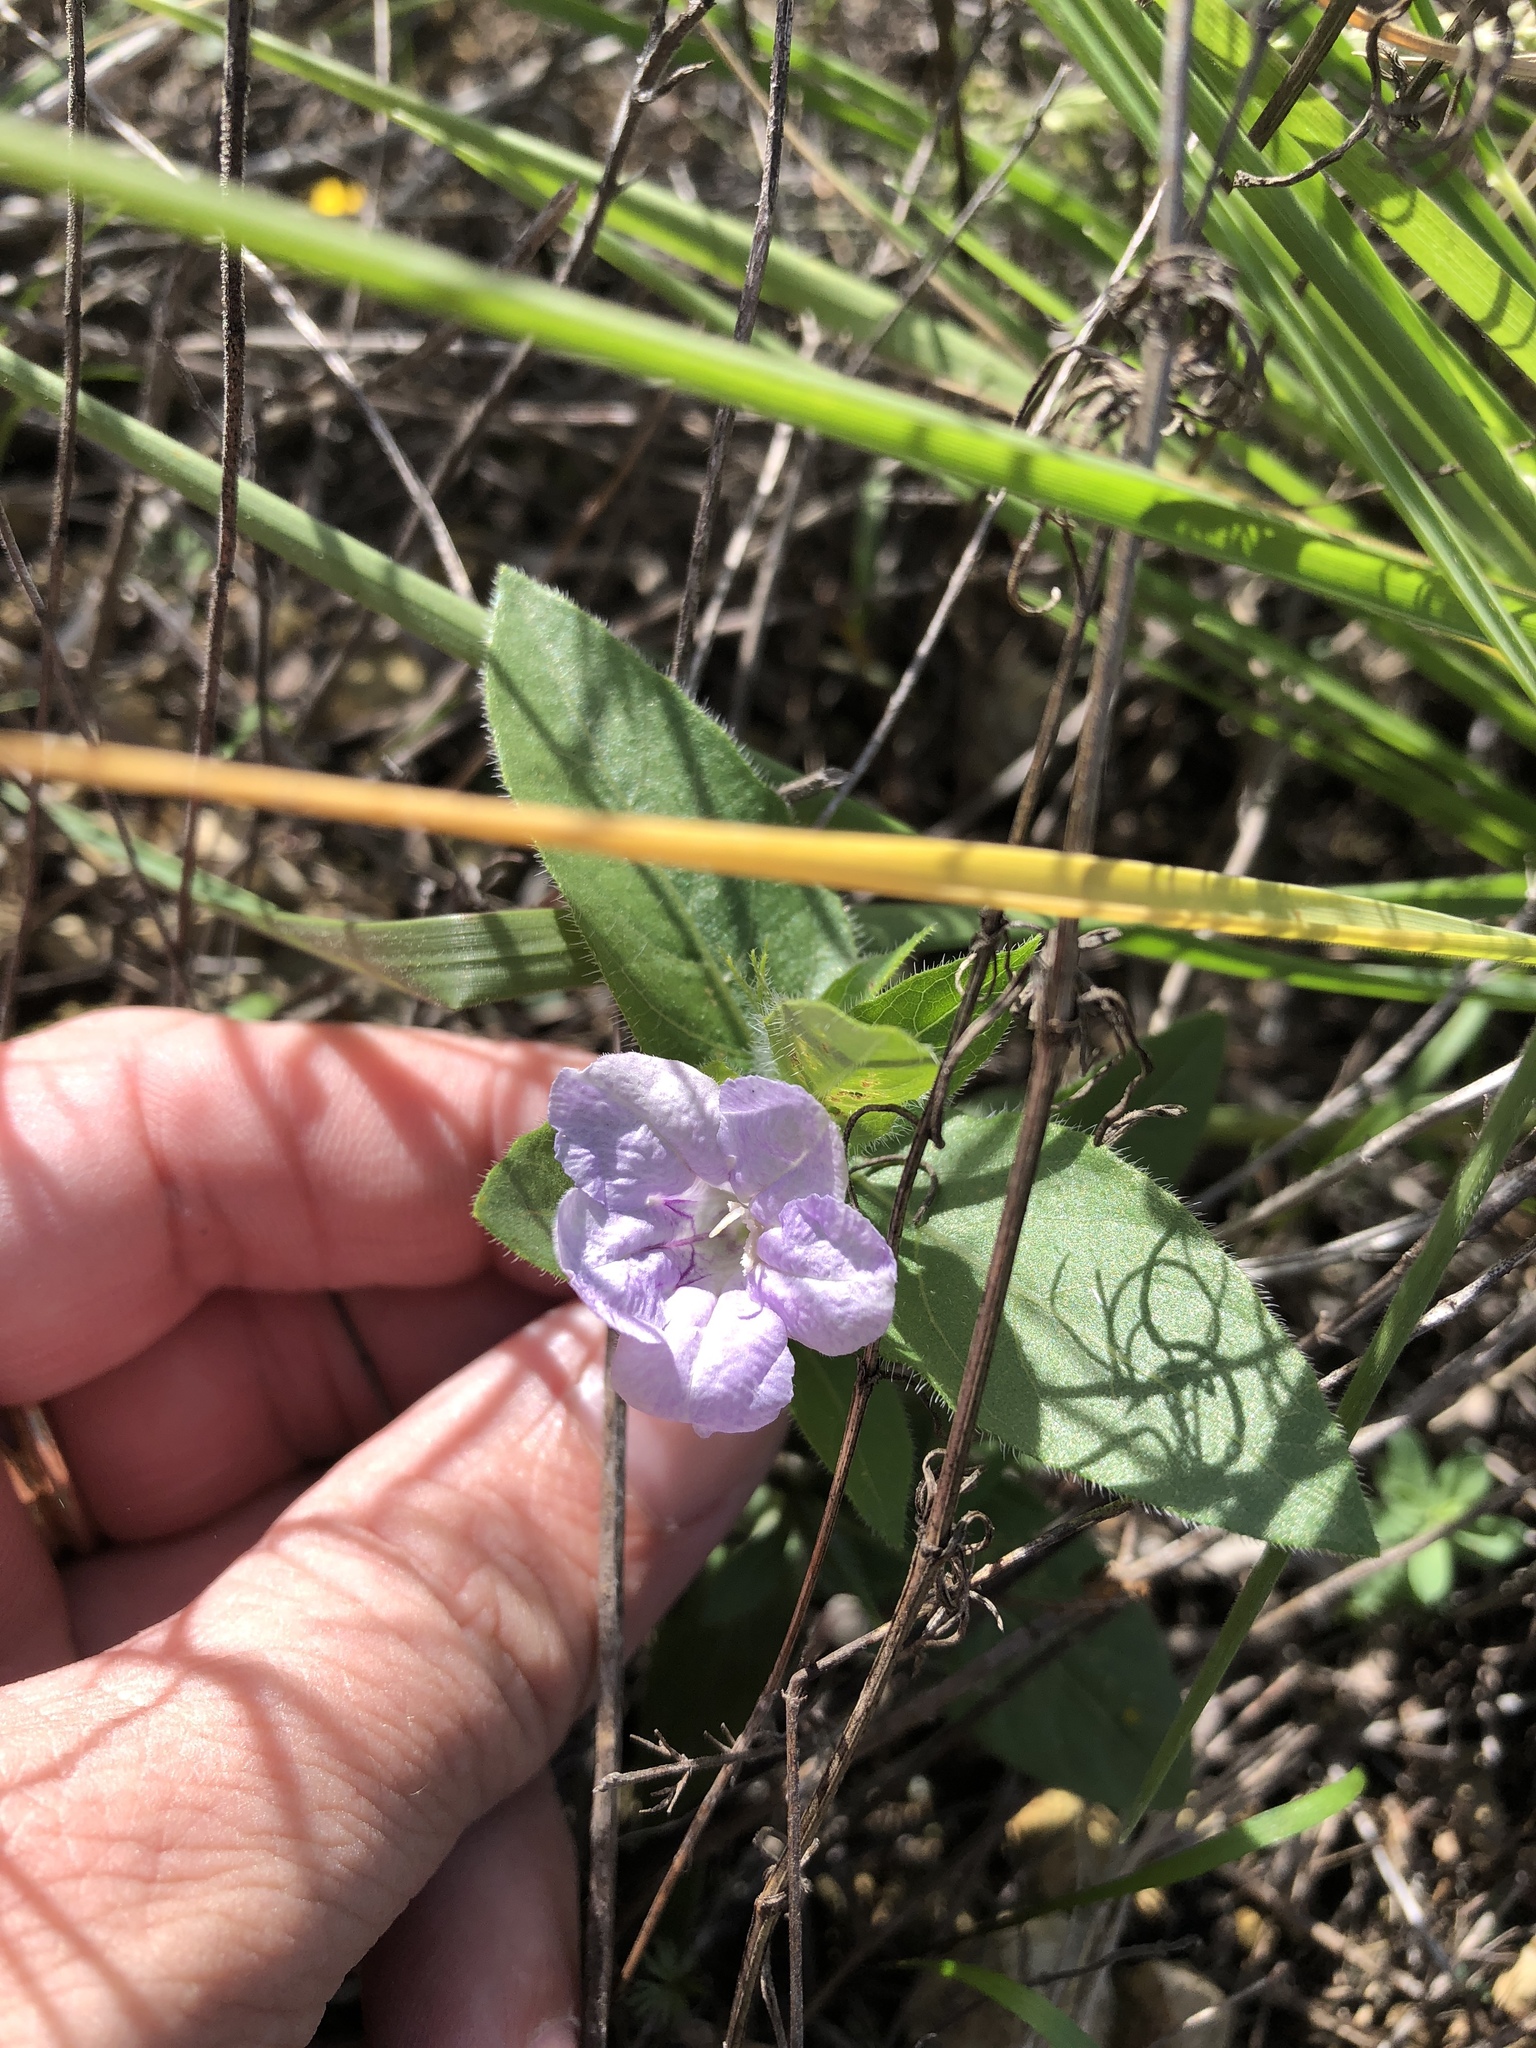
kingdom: Plantae
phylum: Tracheophyta
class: Magnoliopsida
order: Lamiales
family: Acanthaceae
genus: Ruellia
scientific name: Ruellia humilis
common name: Fringe-leaf ruellia
